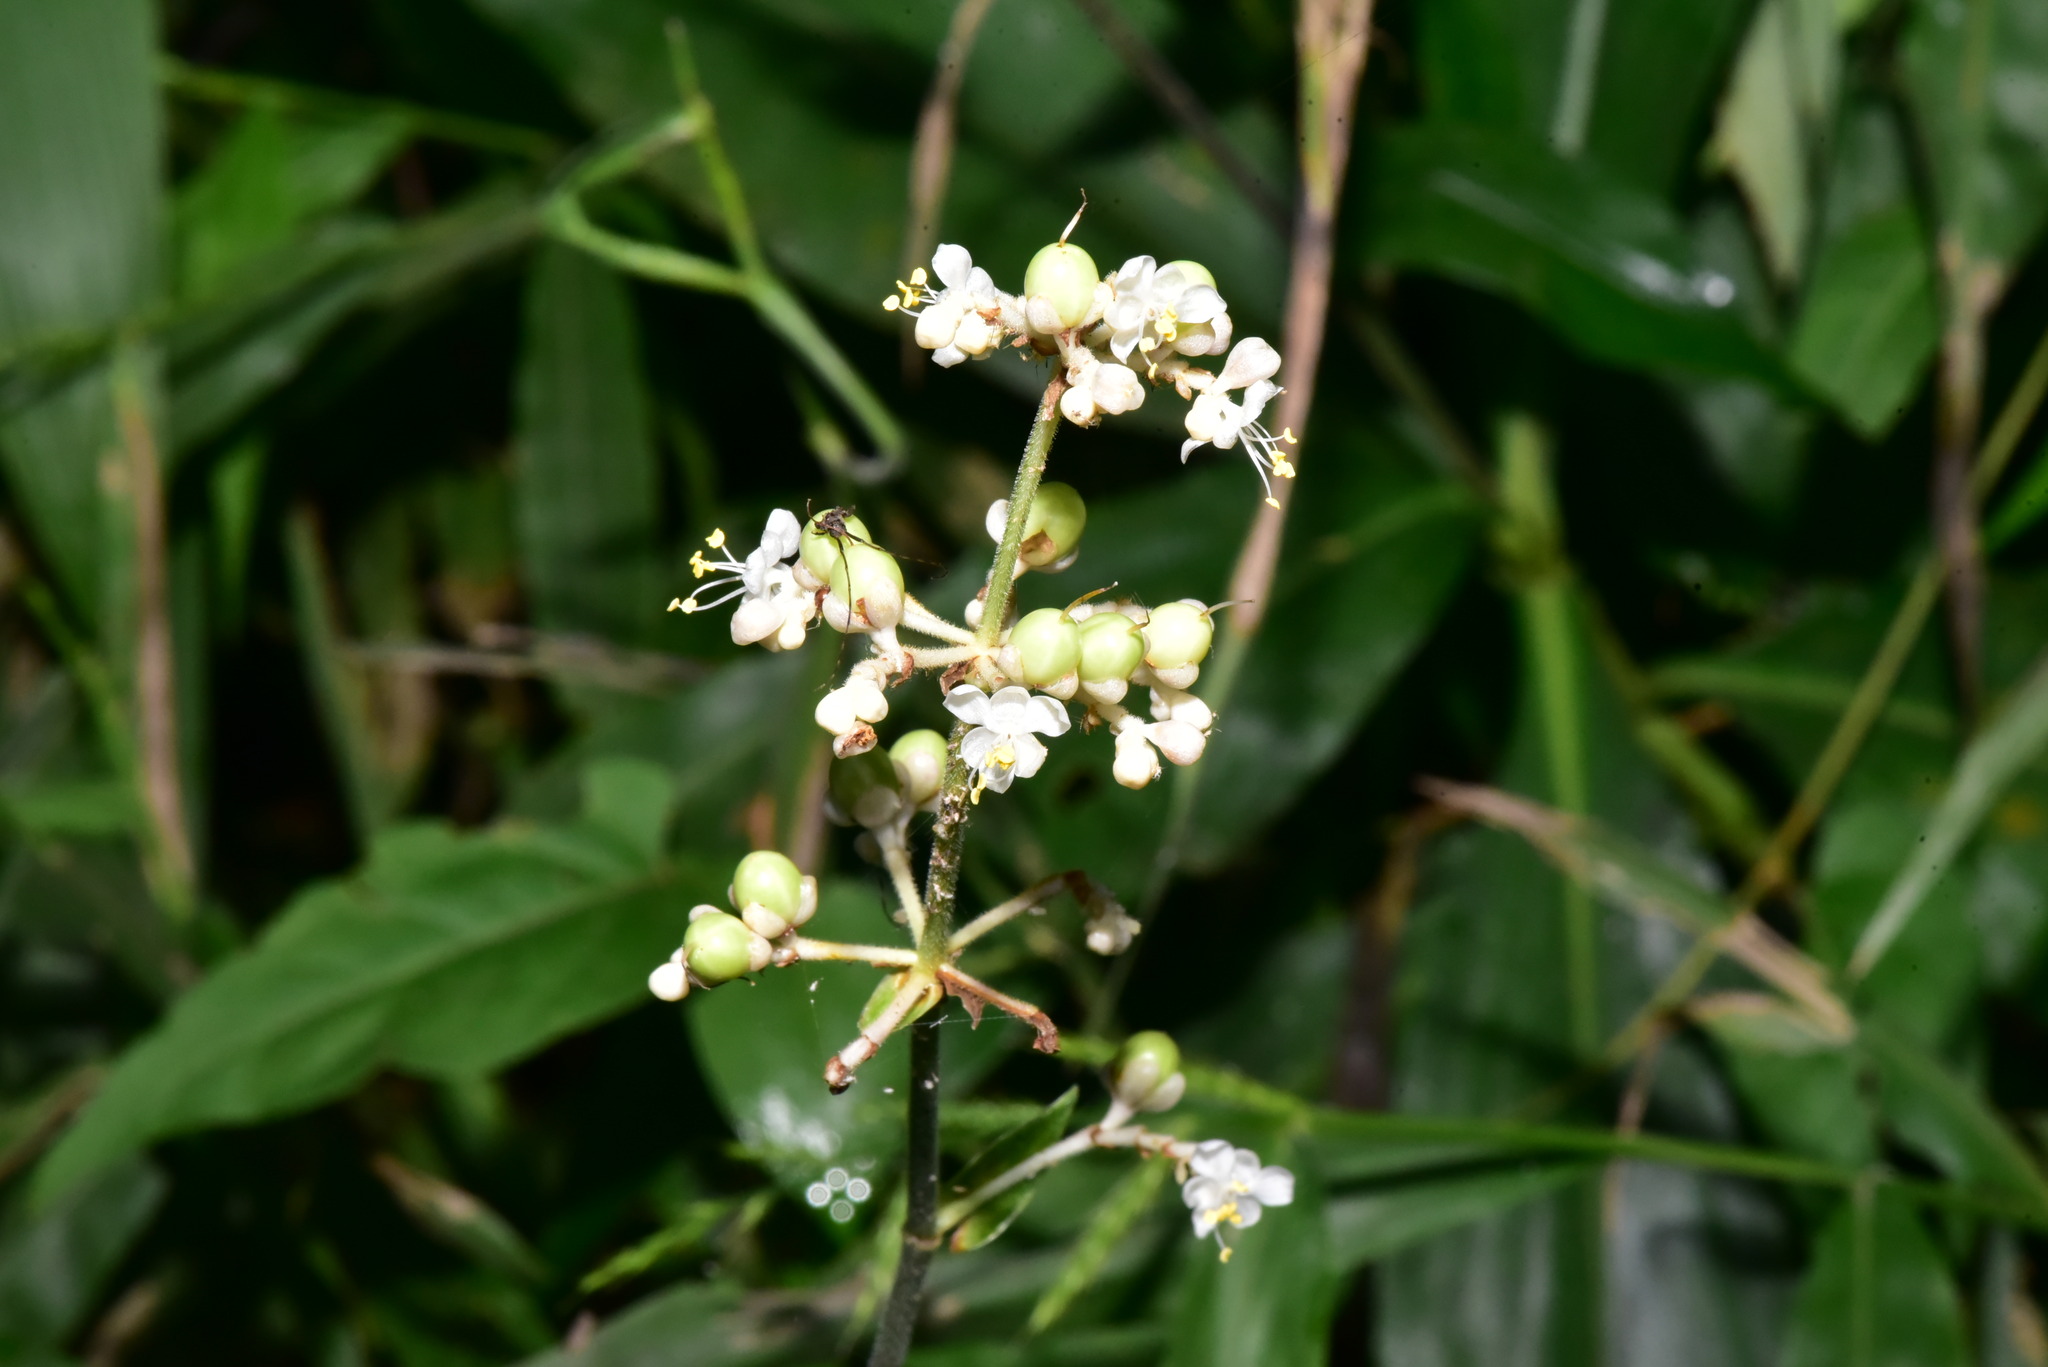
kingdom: Plantae
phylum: Tracheophyta
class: Liliopsida
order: Commelinales
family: Commelinaceae
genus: Pollia
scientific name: Pollia japonica
